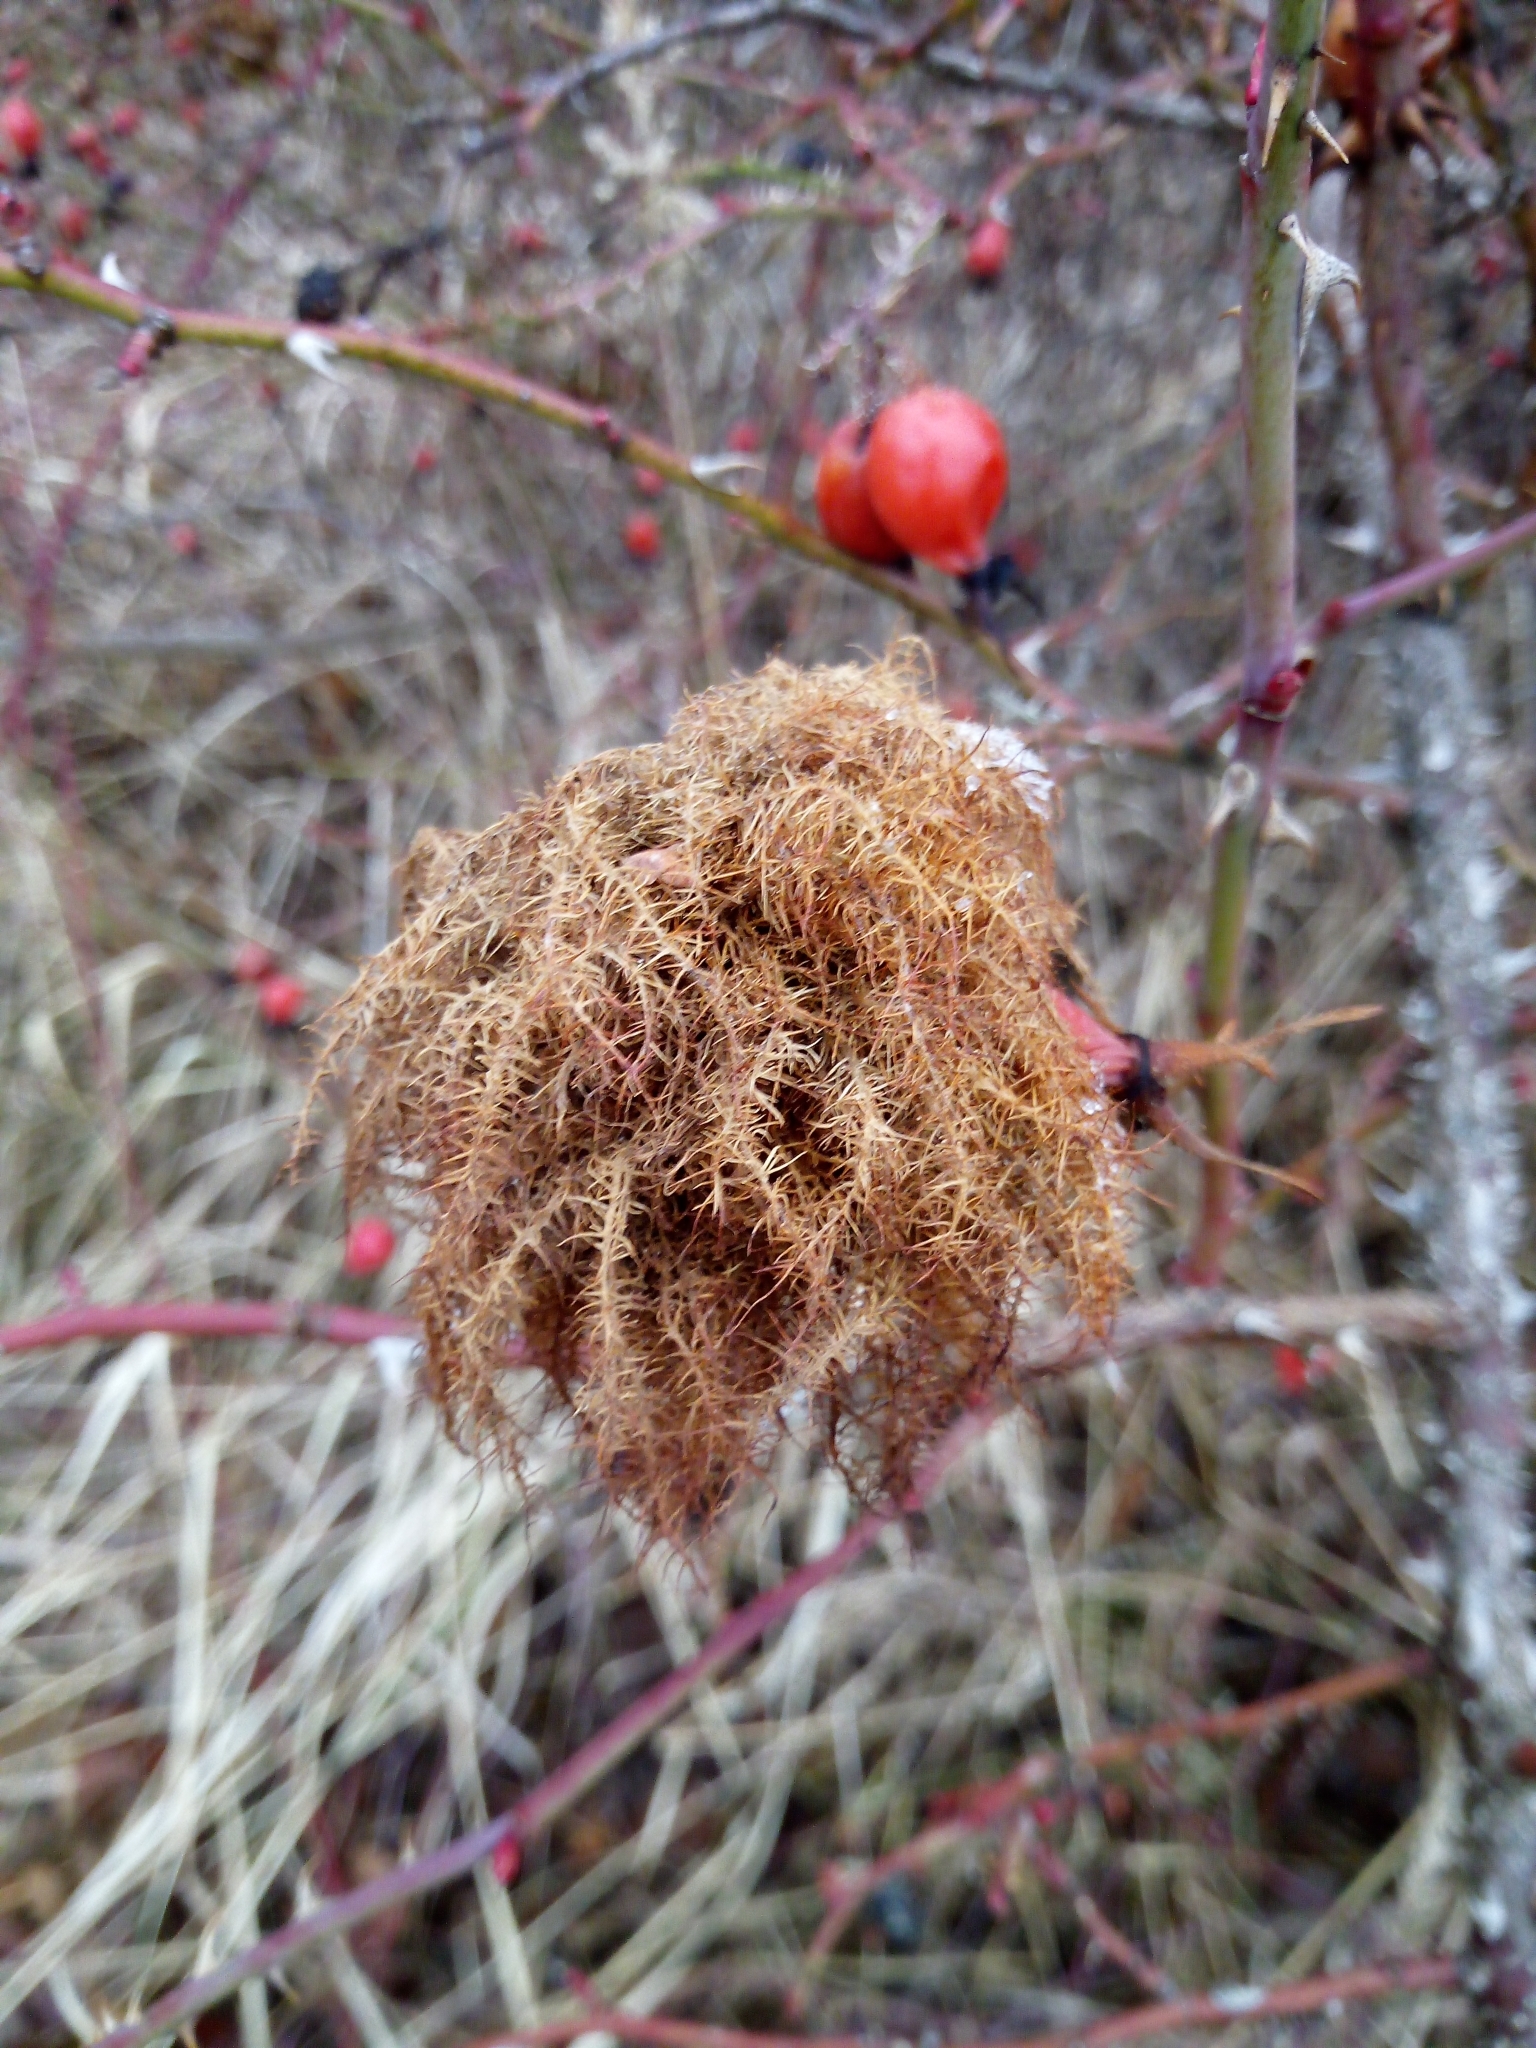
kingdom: Animalia
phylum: Arthropoda
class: Insecta
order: Hymenoptera
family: Cynipidae
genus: Diplolepis
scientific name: Diplolepis rosae
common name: Bedeguar gall
